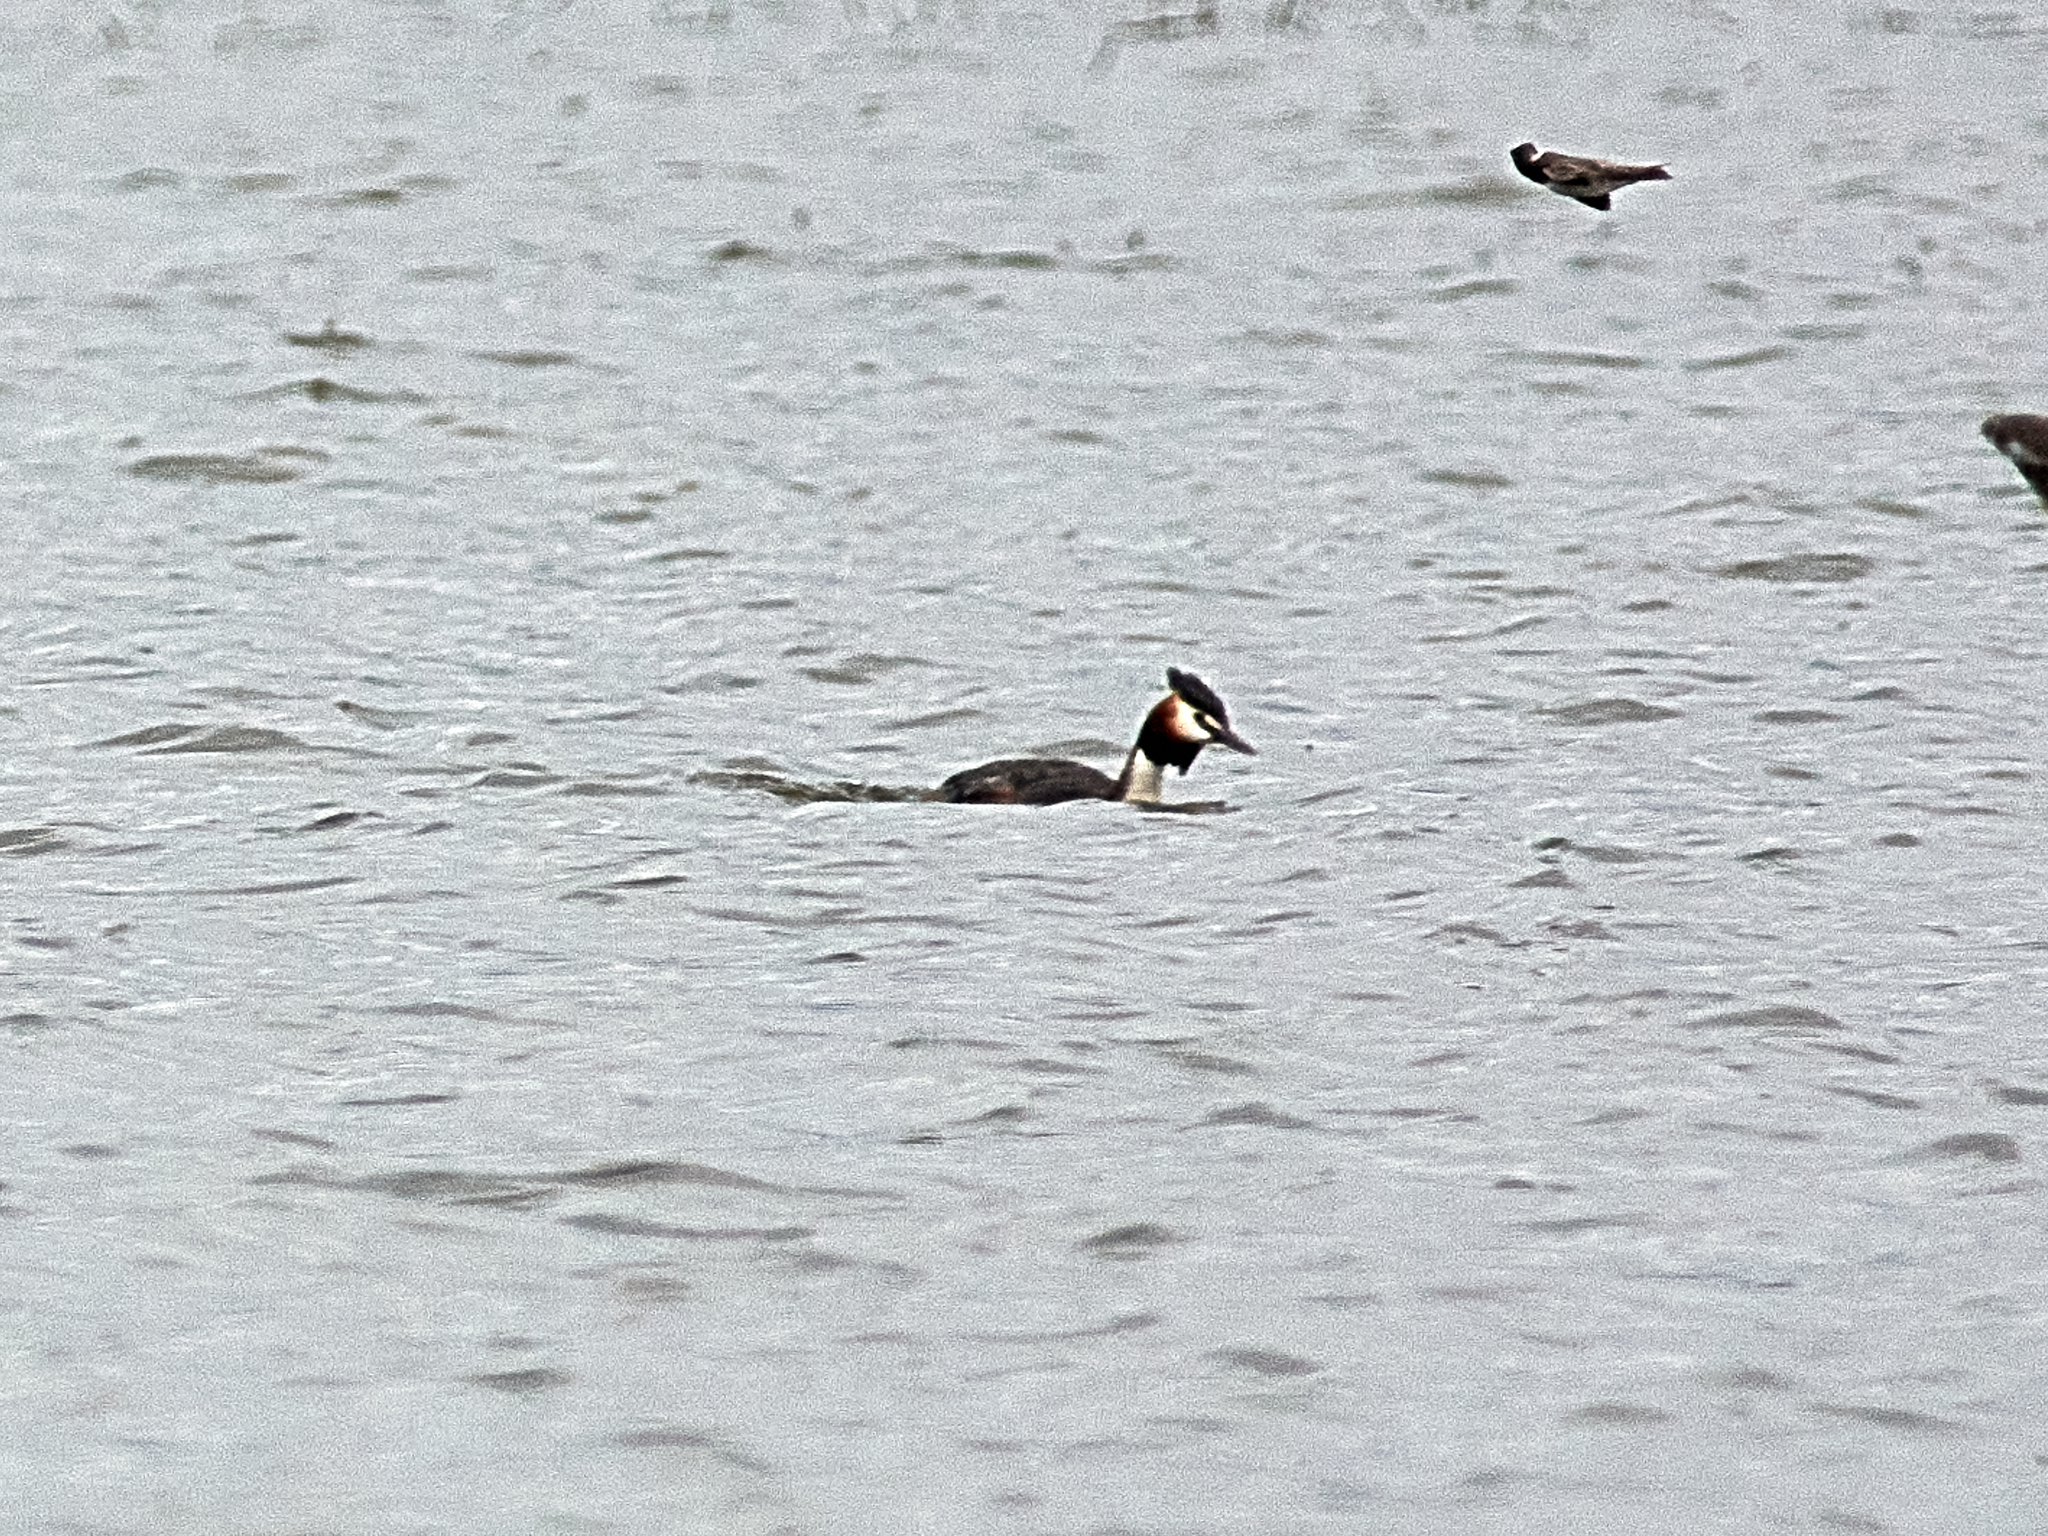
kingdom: Animalia
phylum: Chordata
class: Aves
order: Podicipediformes
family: Podicipedidae
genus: Podiceps
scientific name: Podiceps cristatus
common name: Great crested grebe
